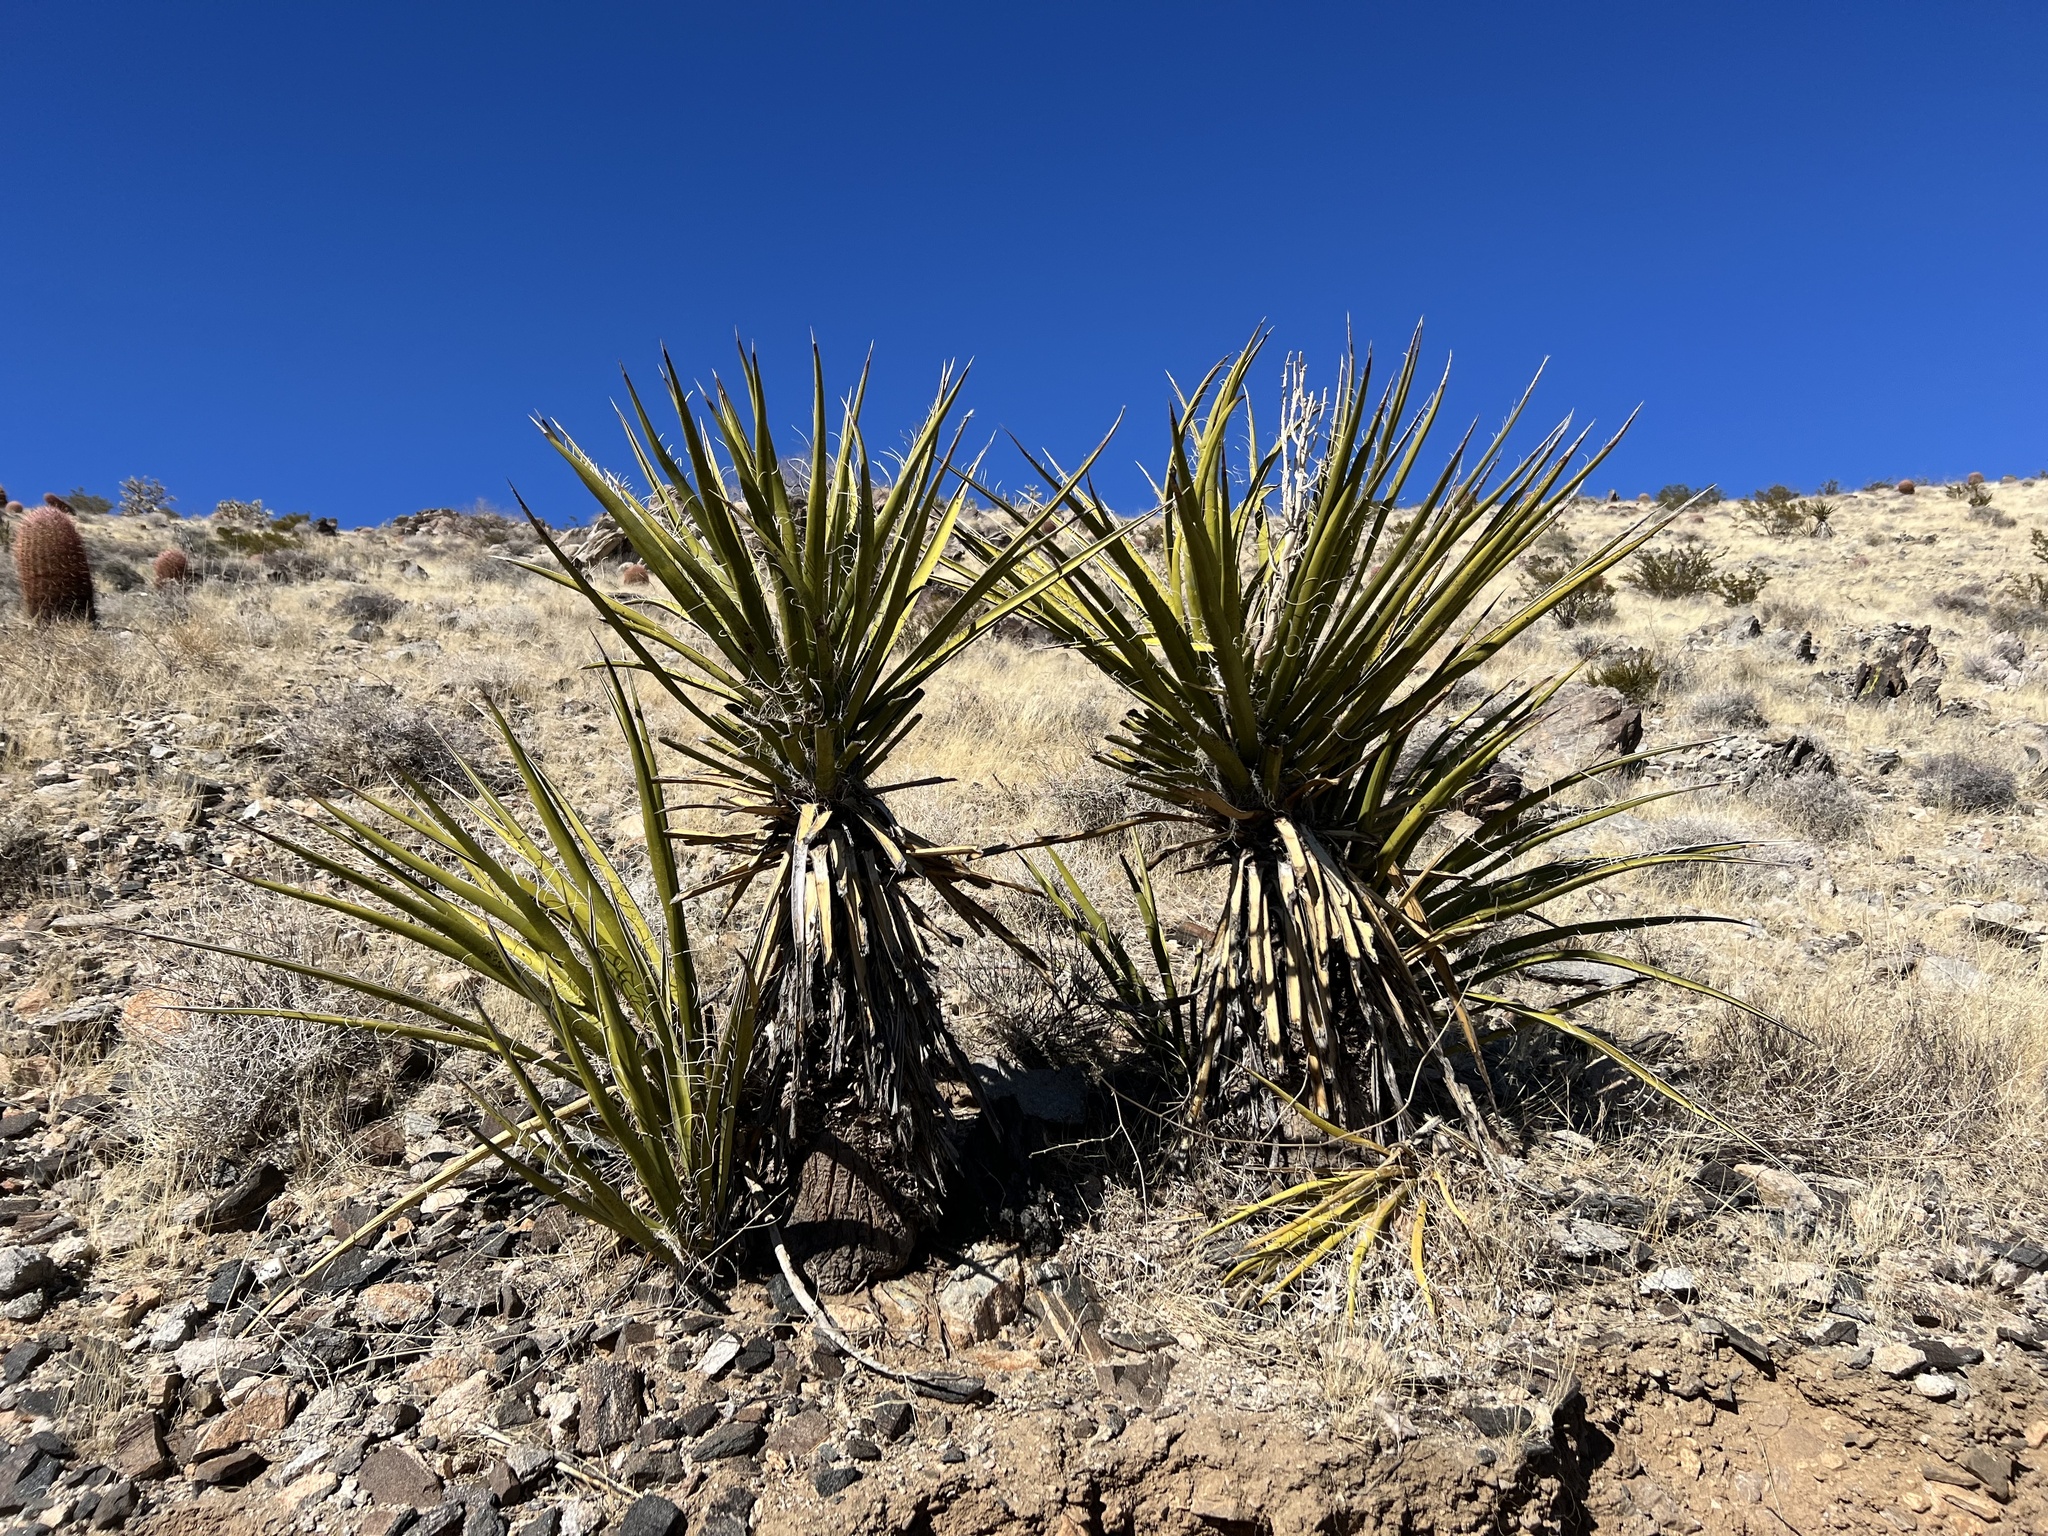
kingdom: Plantae
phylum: Tracheophyta
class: Liliopsida
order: Asparagales
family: Asparagaceae
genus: Yucca
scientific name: Yucca schidigera
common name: Mojave yucca
